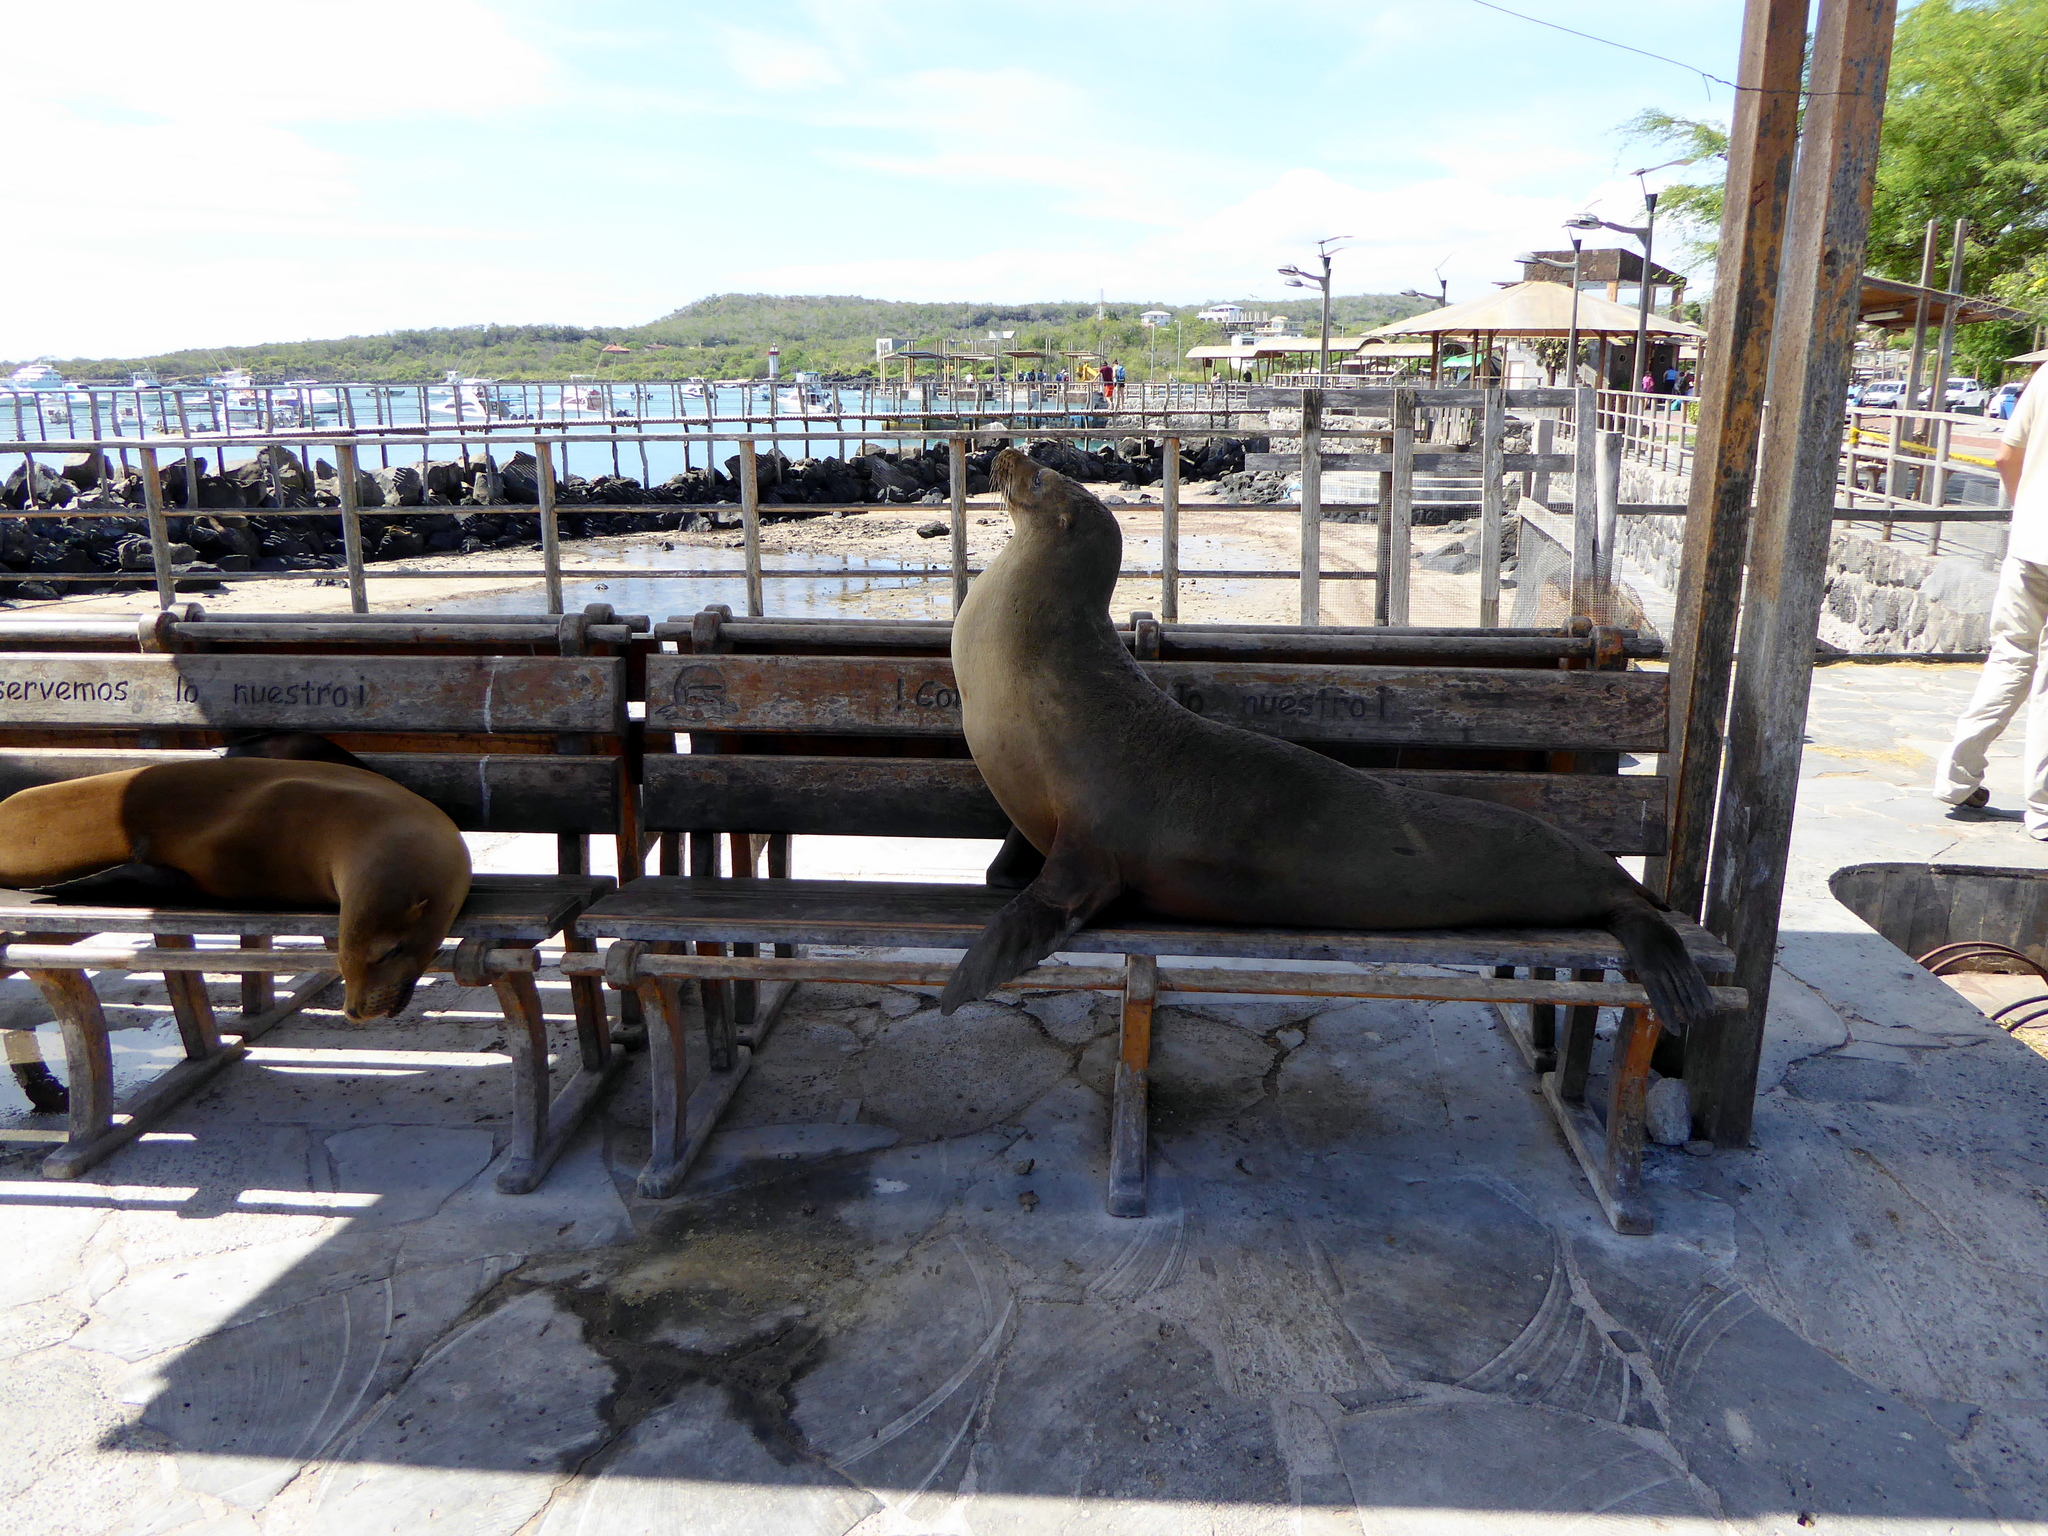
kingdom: Animalia
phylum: Chordata
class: Mammalia
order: Carnivora
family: Otariidae
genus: Zalophus
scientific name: Zalophus wollebaeki
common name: Galapagos sea lion
